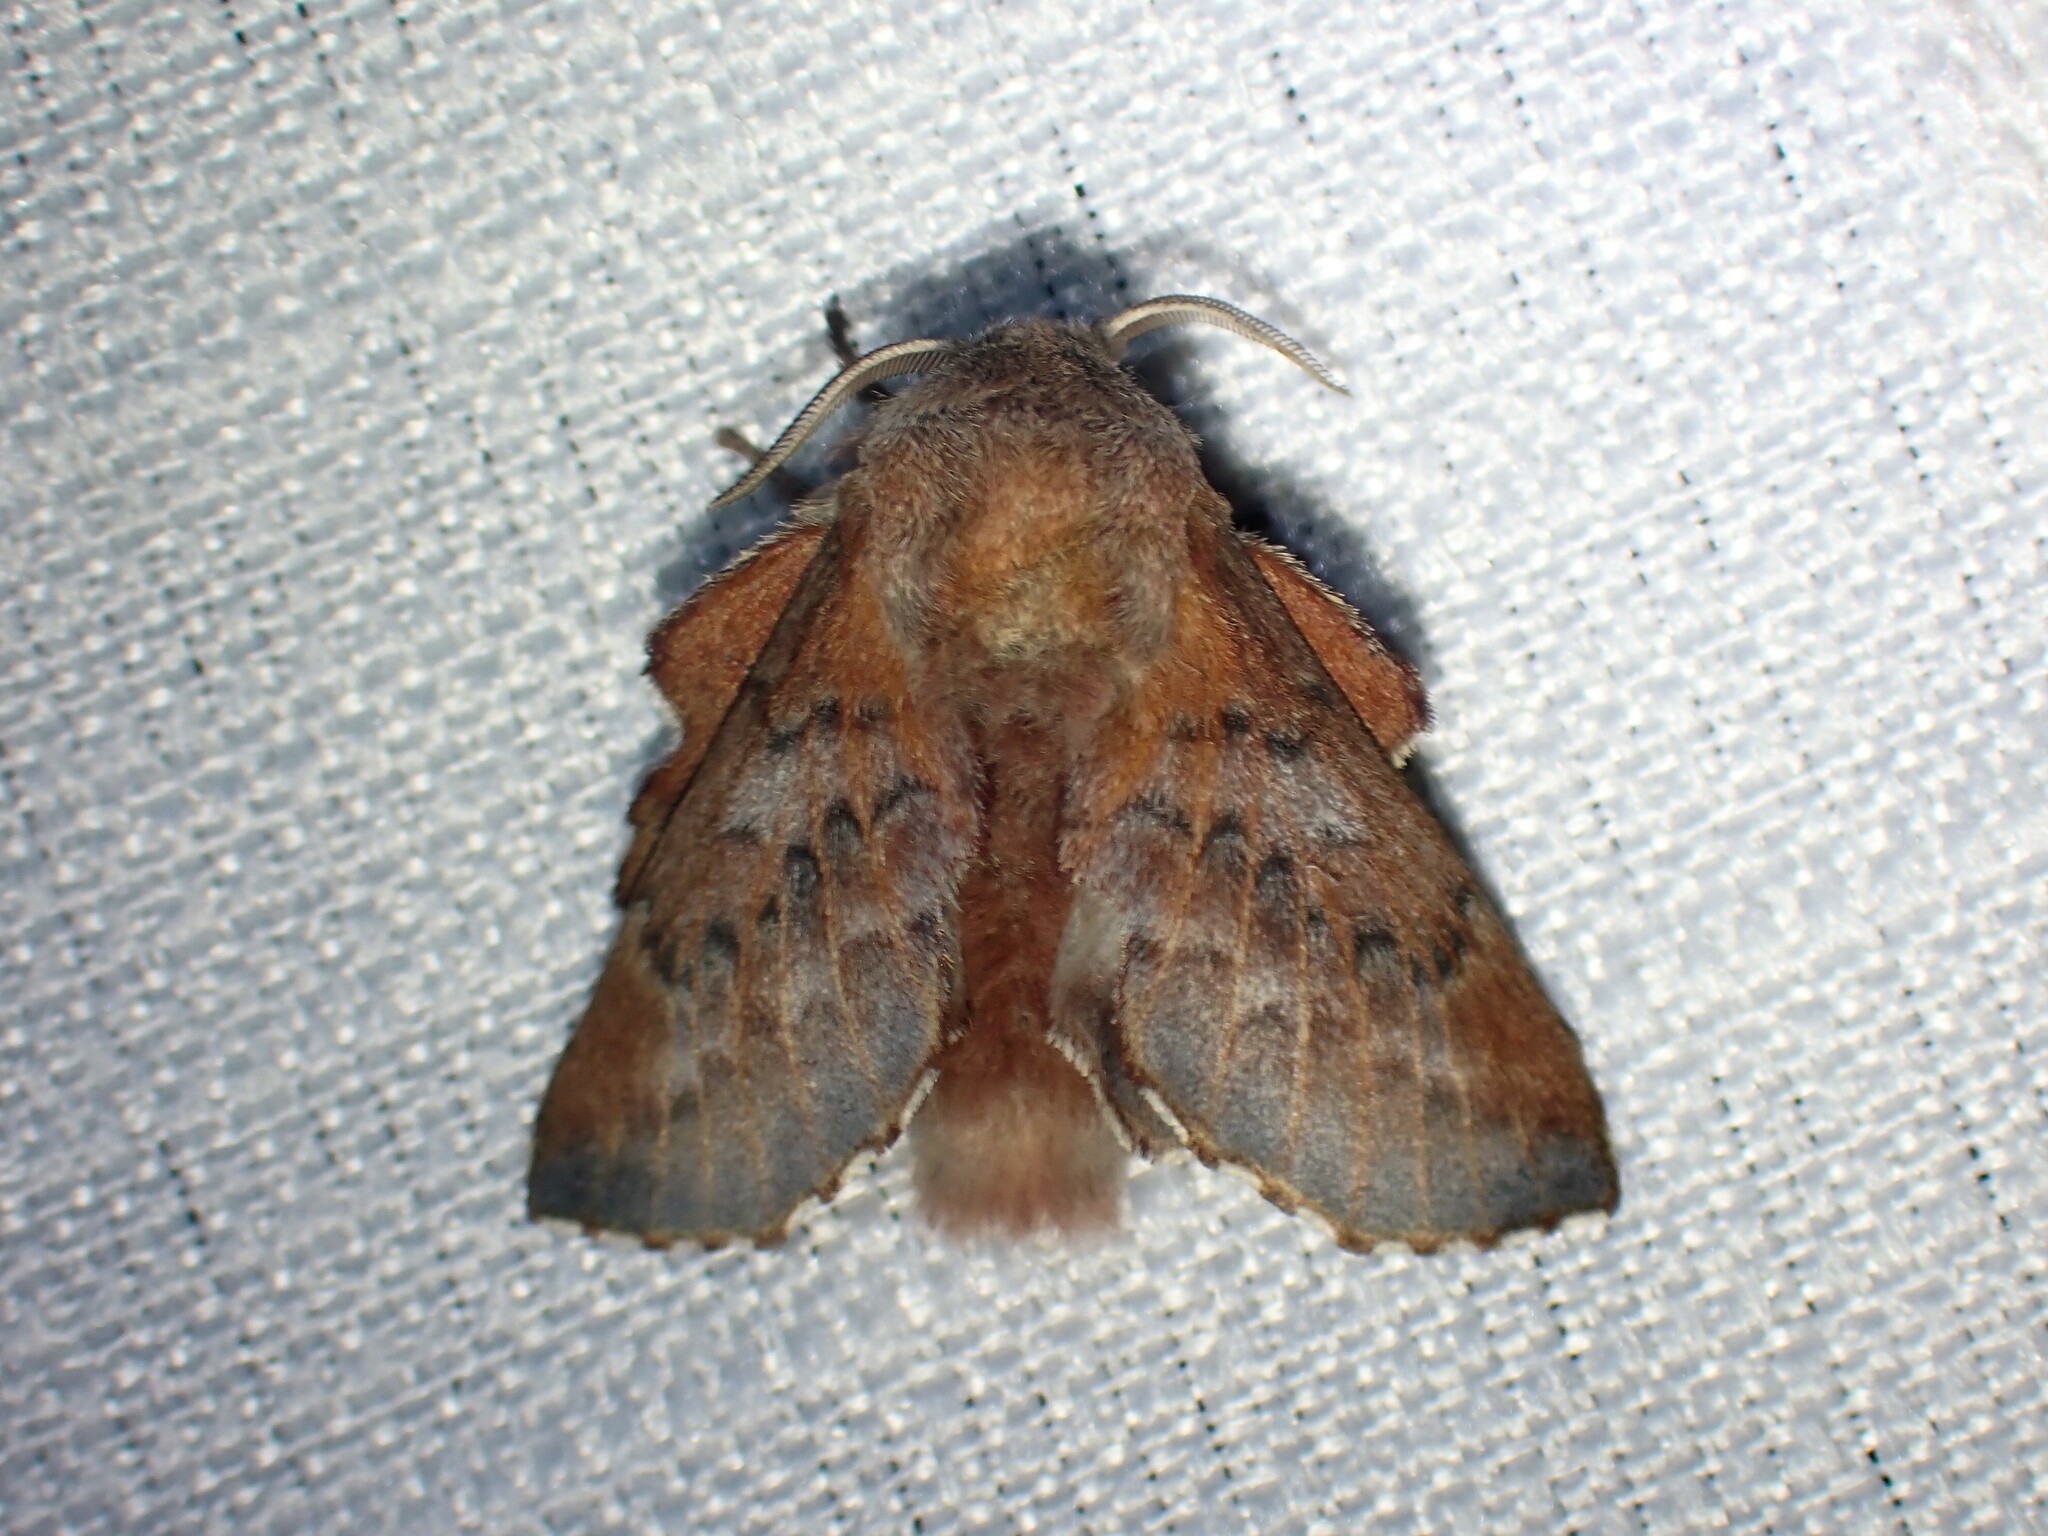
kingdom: Animalia
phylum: Arthropoda
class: Insecta
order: Lepidoptera
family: Lasiocampidae
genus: Phyllodesma
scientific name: Phyllodesma americana
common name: American lappet moth
